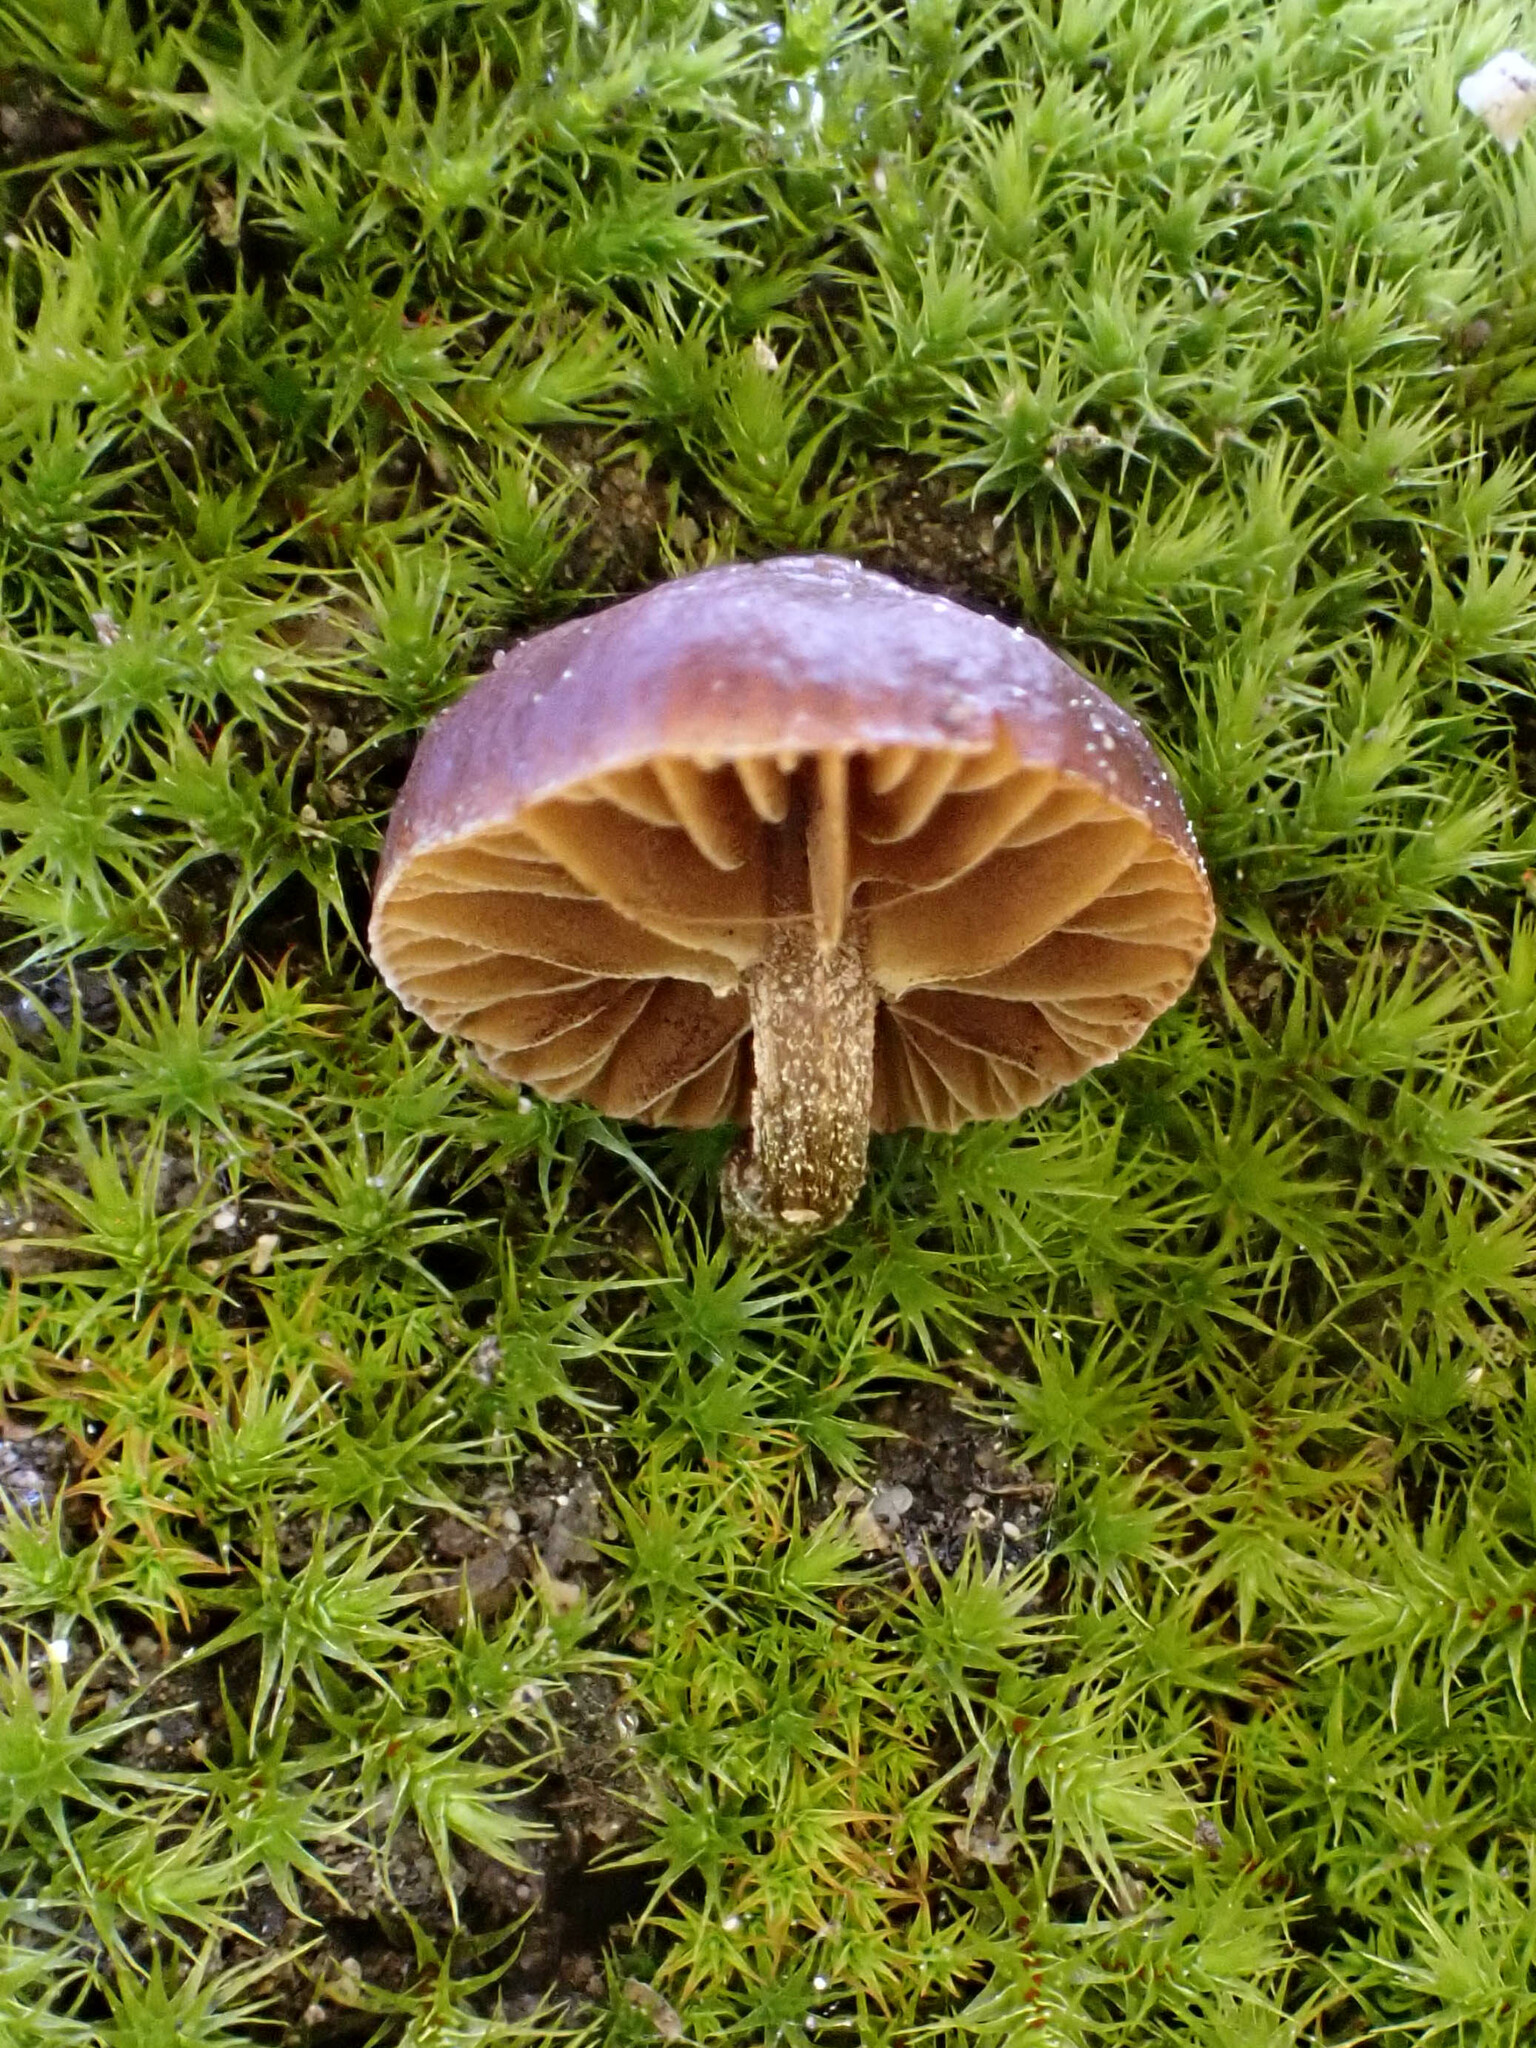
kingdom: Fungi
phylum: Basidiomycota
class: Agaricomycetes
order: Agaricales
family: Strophariaceae
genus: Deconica
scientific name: Deconica montana
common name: Mountain moss deconica
